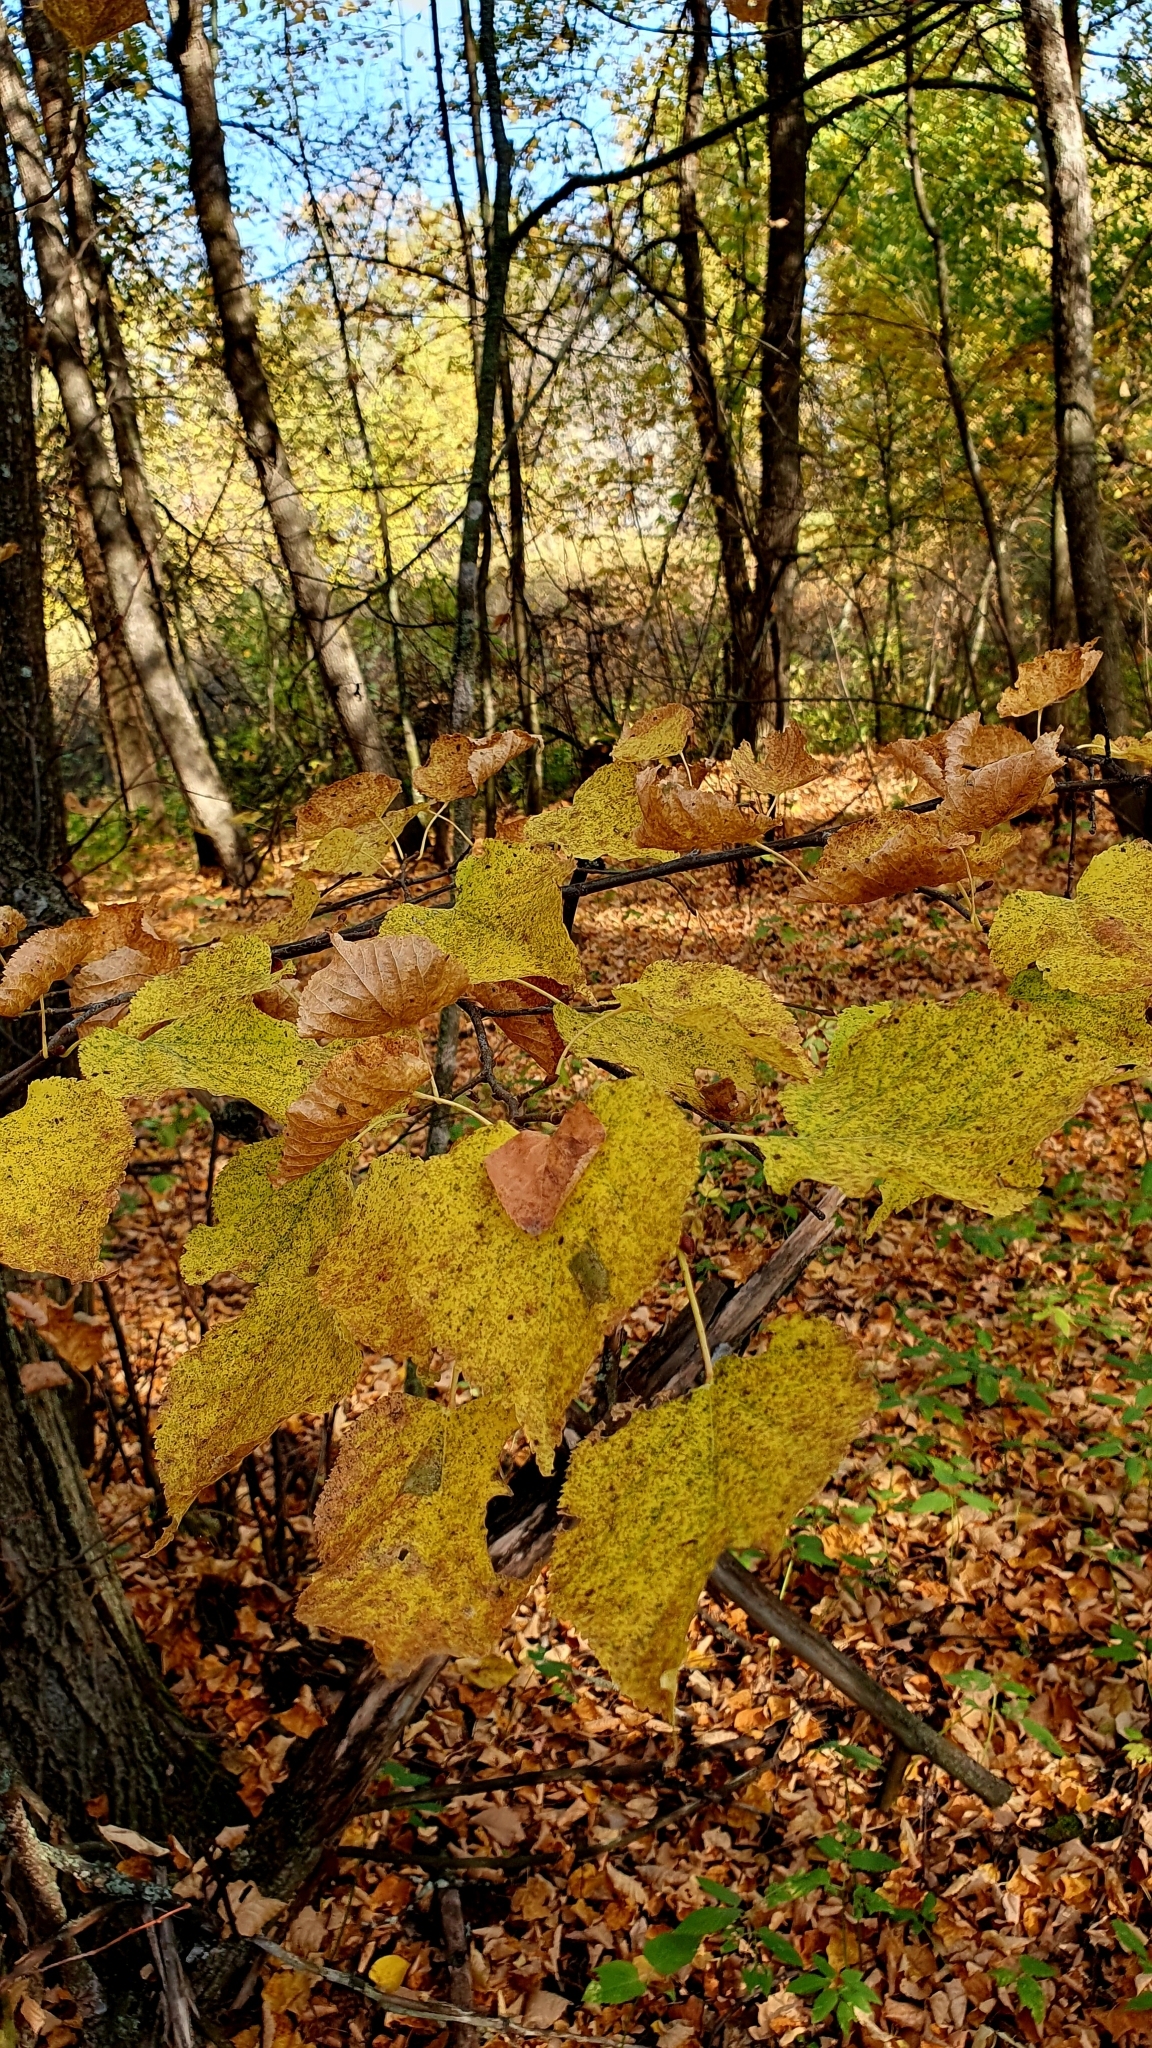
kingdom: Plantae
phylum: Tracheophyta
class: Magnoliopsida
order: Malvales
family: Malvaceae
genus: Tilia
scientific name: Tilia cordata
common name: Small-leaved lime
